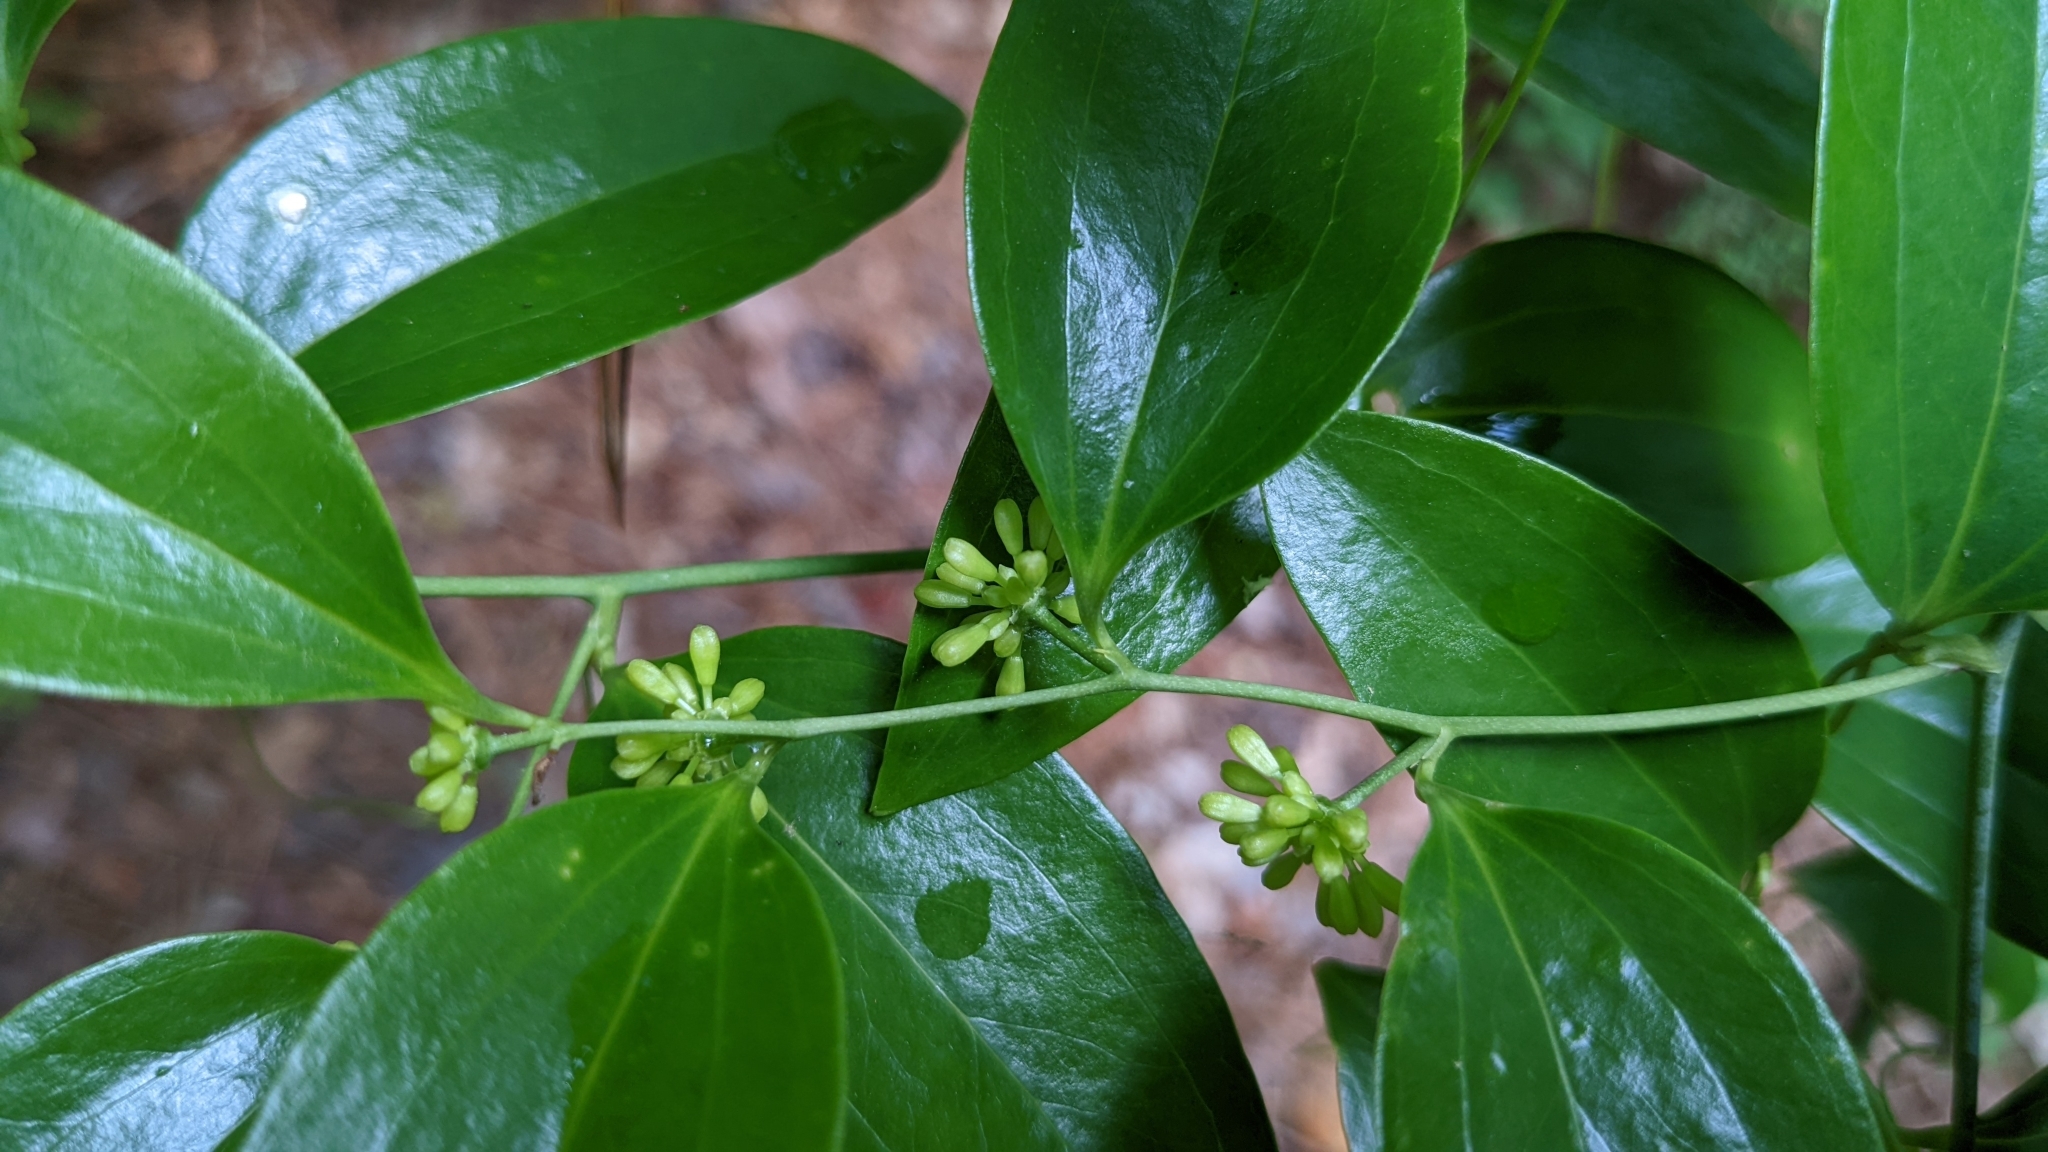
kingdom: Plantae
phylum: Tracheophyta
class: Liliopsida
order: Liliales
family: Smilacaceae
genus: Smilax
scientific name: Smilax maritima
